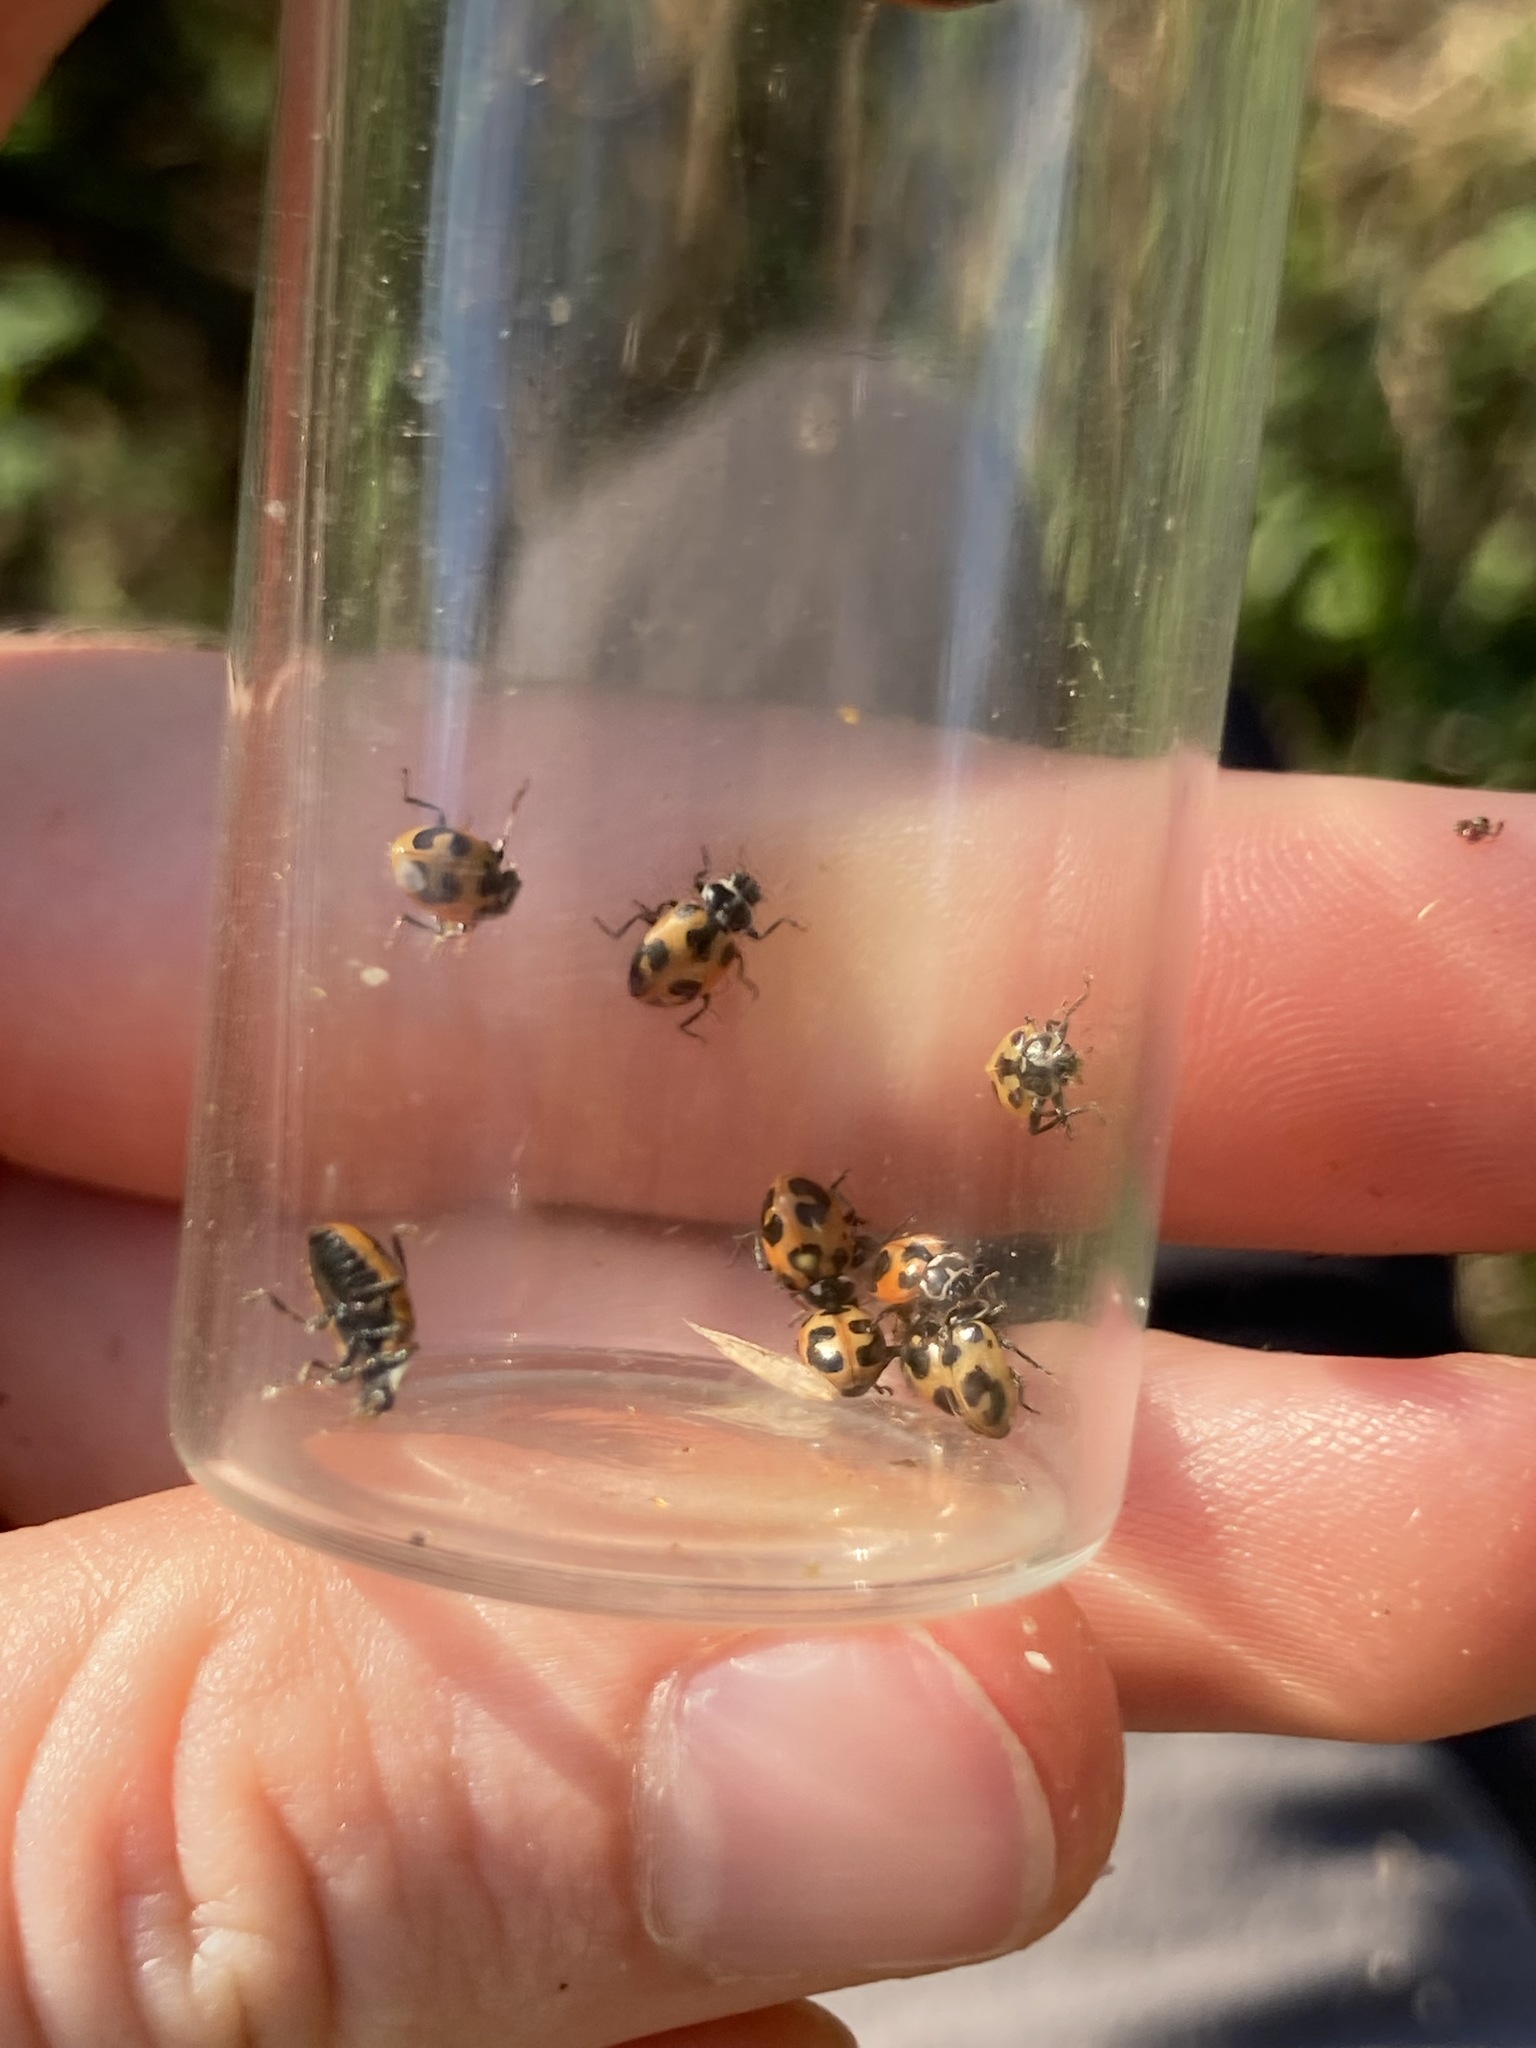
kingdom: Animalia
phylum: Arthropoda
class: Insecta
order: Coleoptera
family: Coccinellidae
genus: Hippodamia
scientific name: Hippodamia parenthesis
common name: Parenthesis lady beetle
